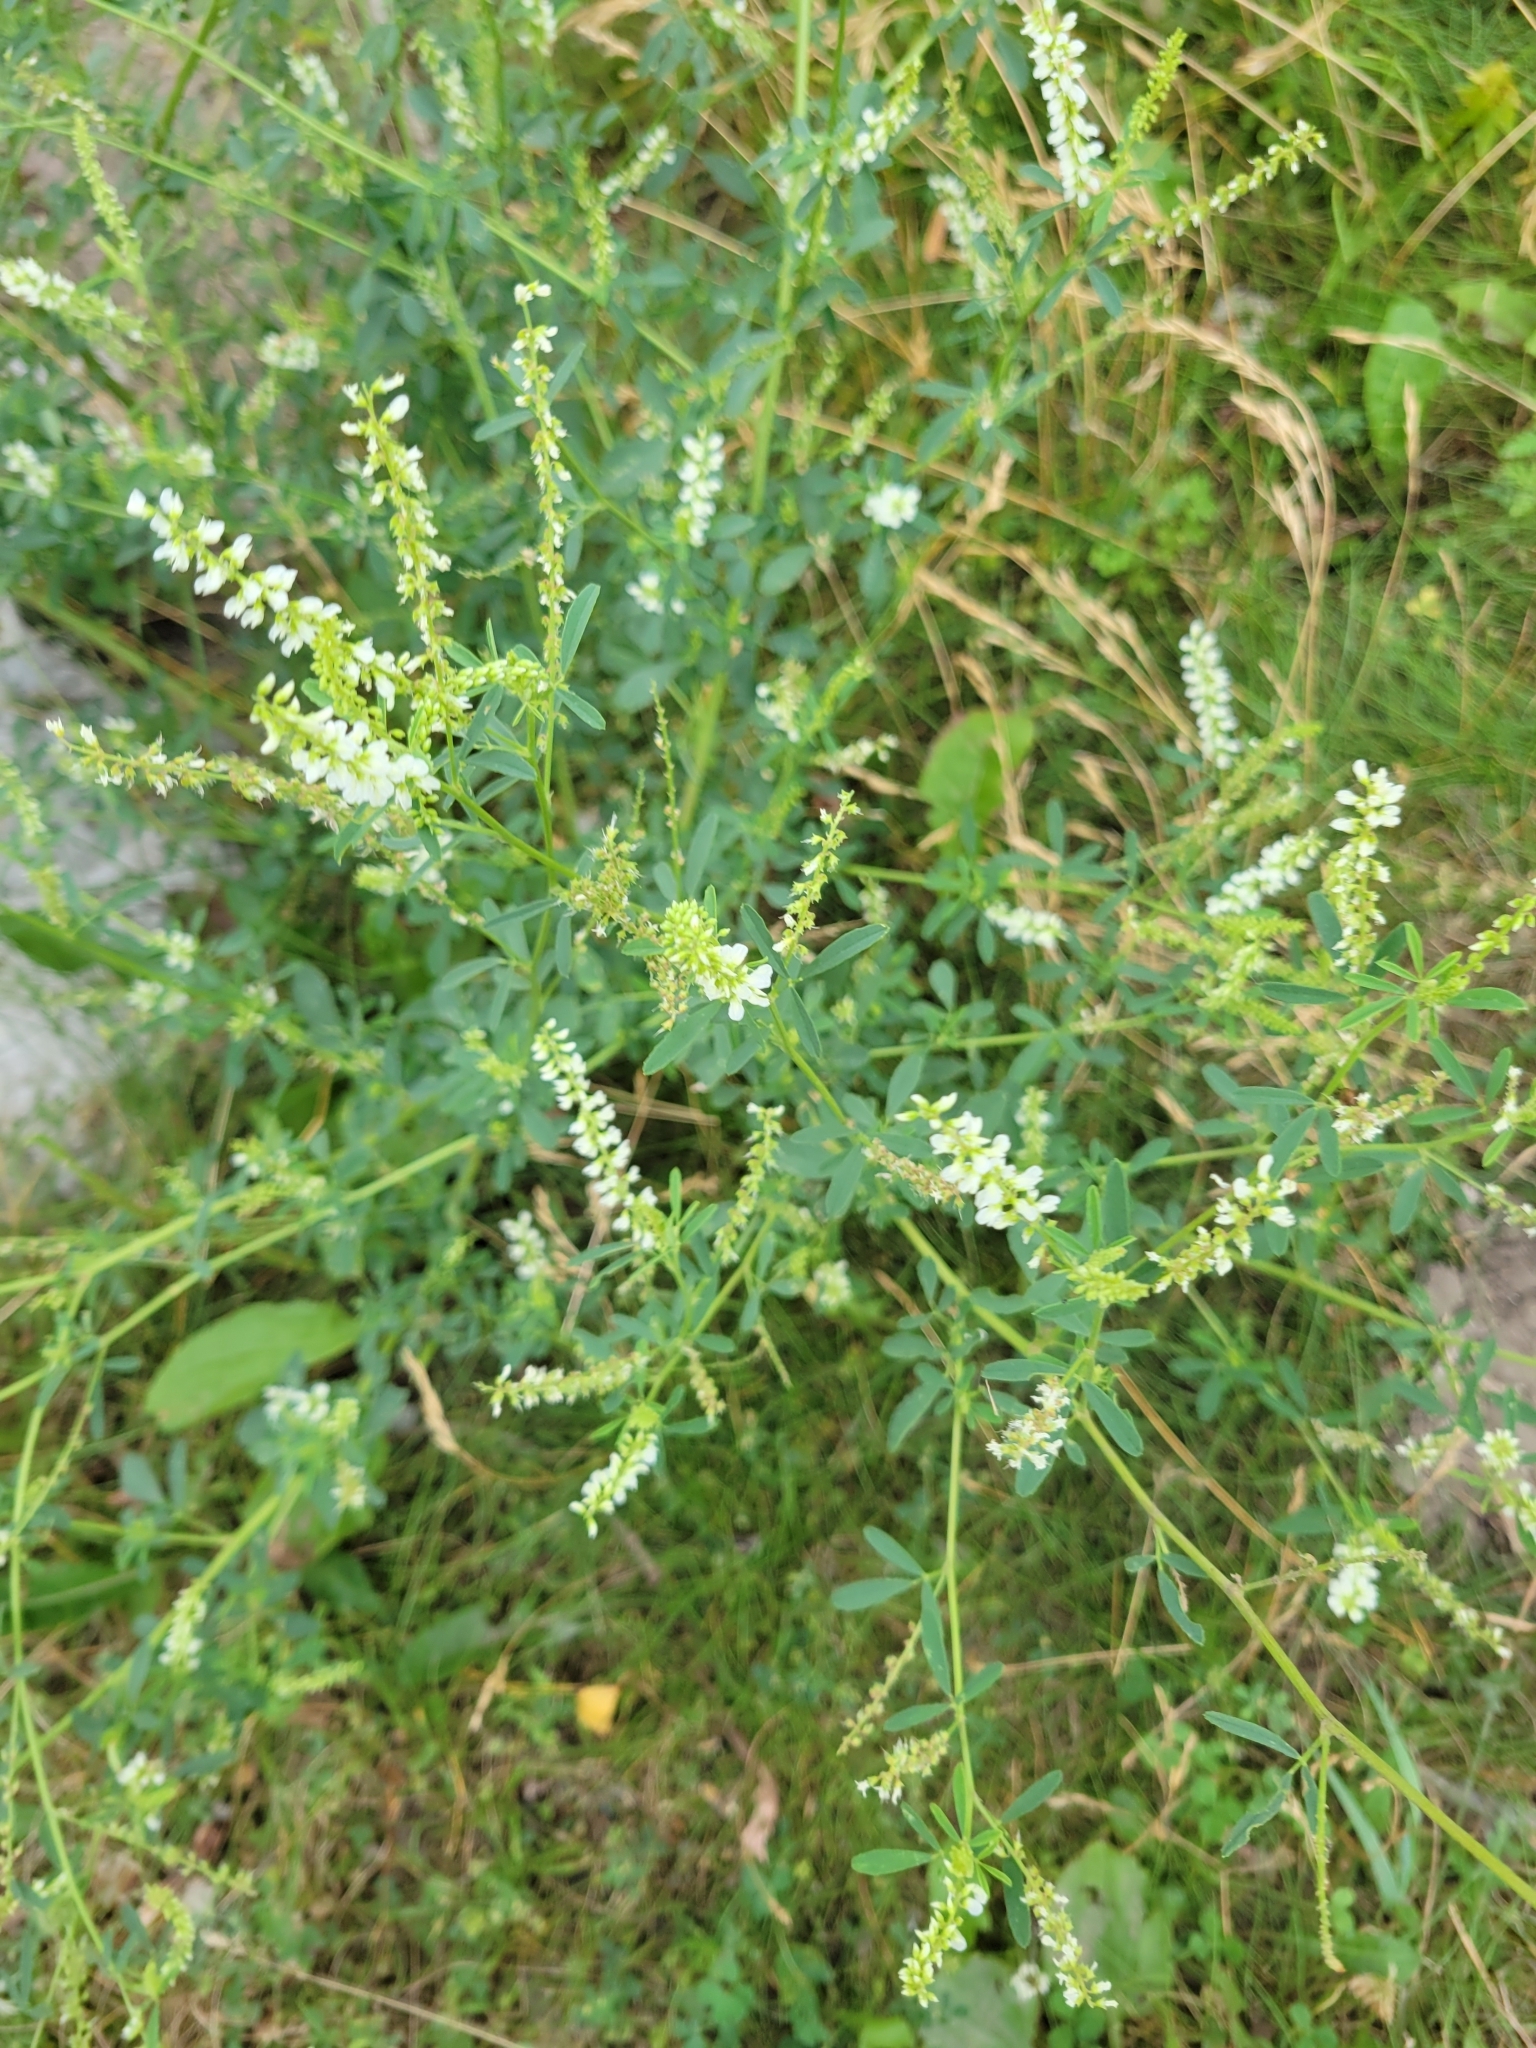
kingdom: Plantae
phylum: Tracheophyta
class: Magnoliopsida
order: Fabales
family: Fabaceae
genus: Melilotus
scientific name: Melilotus albus
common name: White melilot
